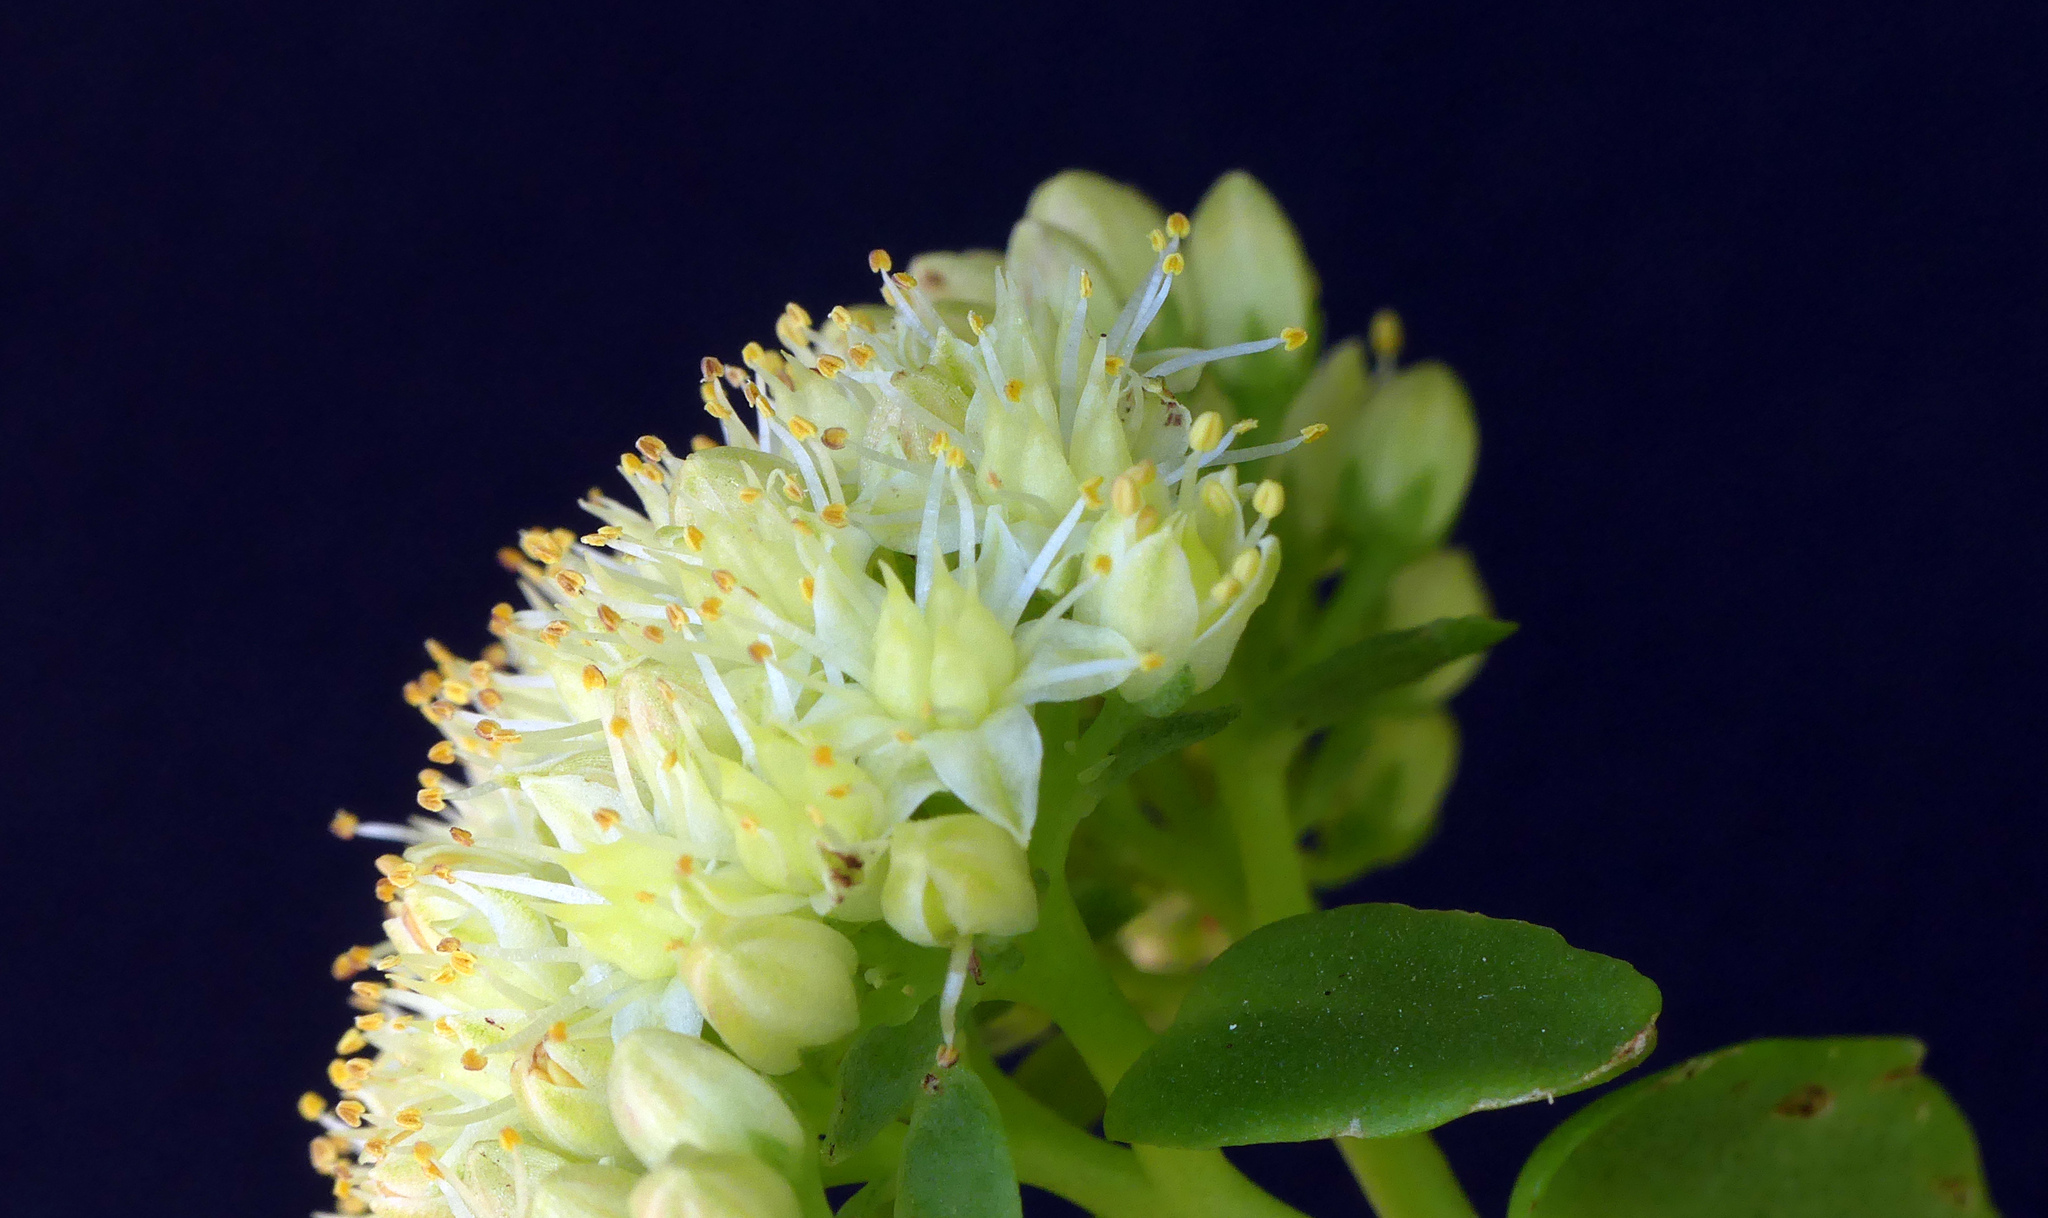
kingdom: Plantae
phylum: Tracheophyta
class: Magnoliopsida
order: Saxifragales
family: Crassulaceae
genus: Hylotelephium
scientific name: Hylotelephium maximum
